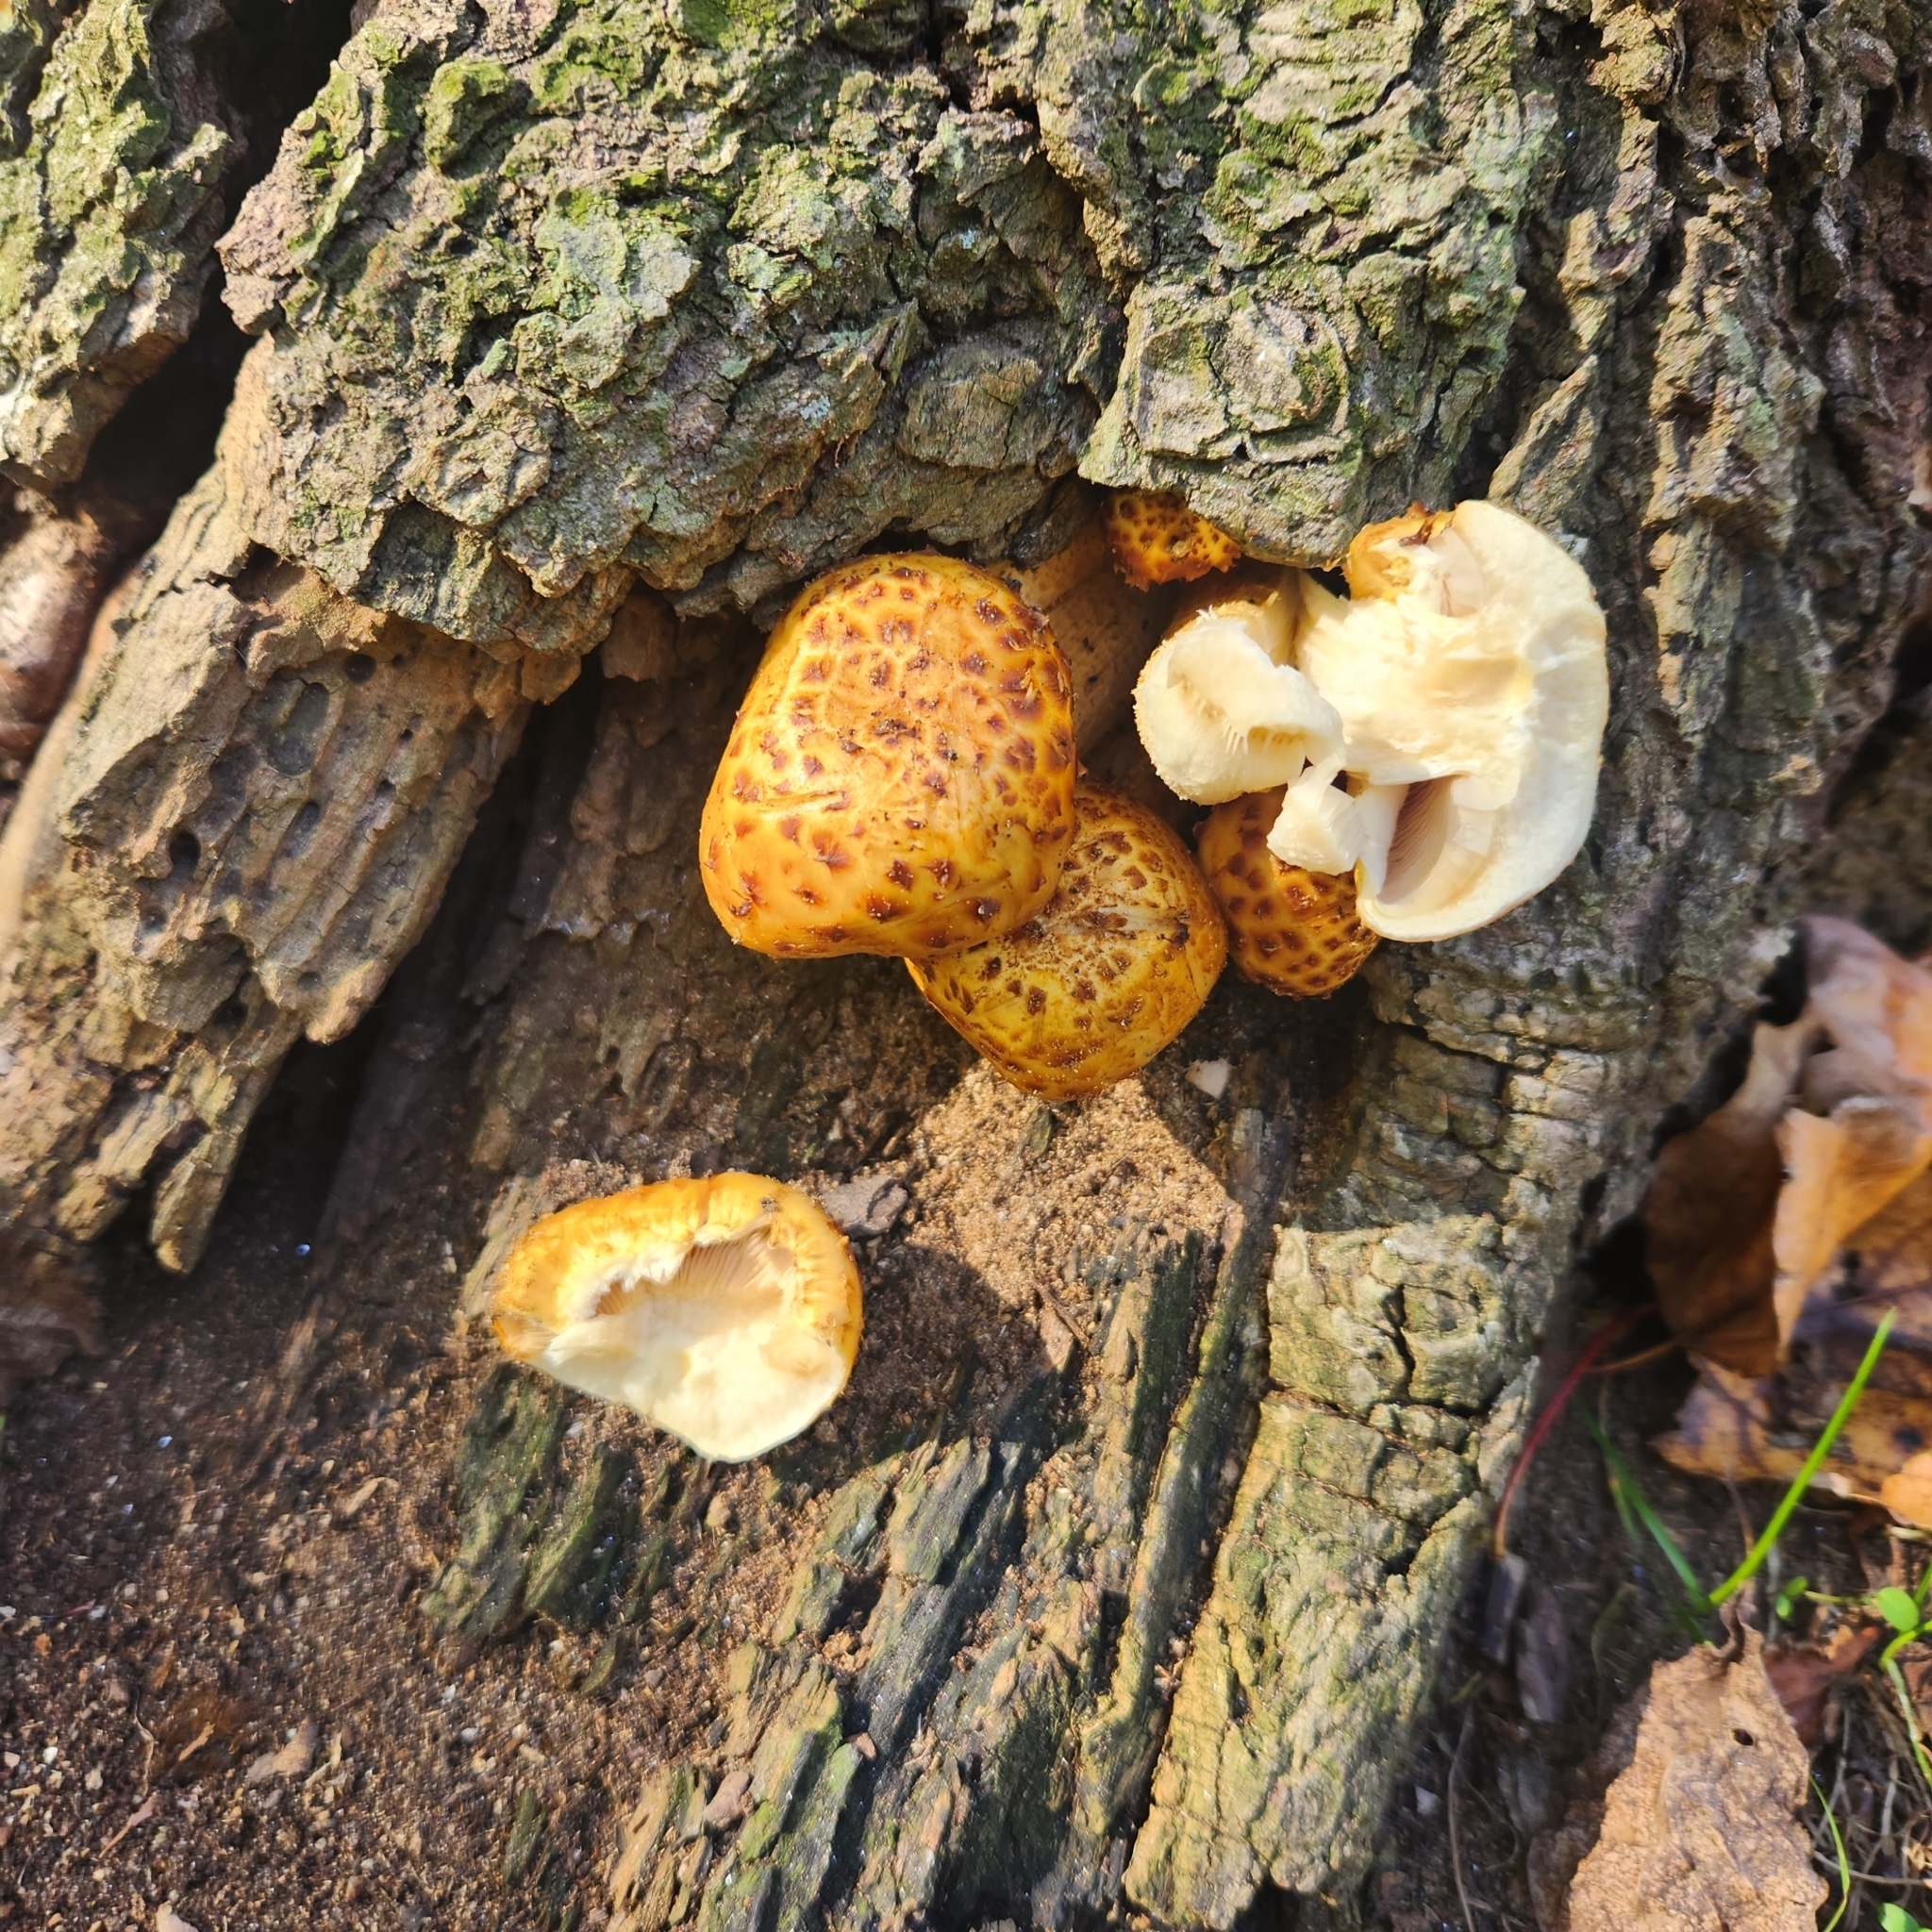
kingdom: Fungi
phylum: Basidiomycota
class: Agaricomycetes
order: Agaricales
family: Strophariaceae
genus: Pholiota
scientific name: Pholiota aurivella
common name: Golden scalycap
